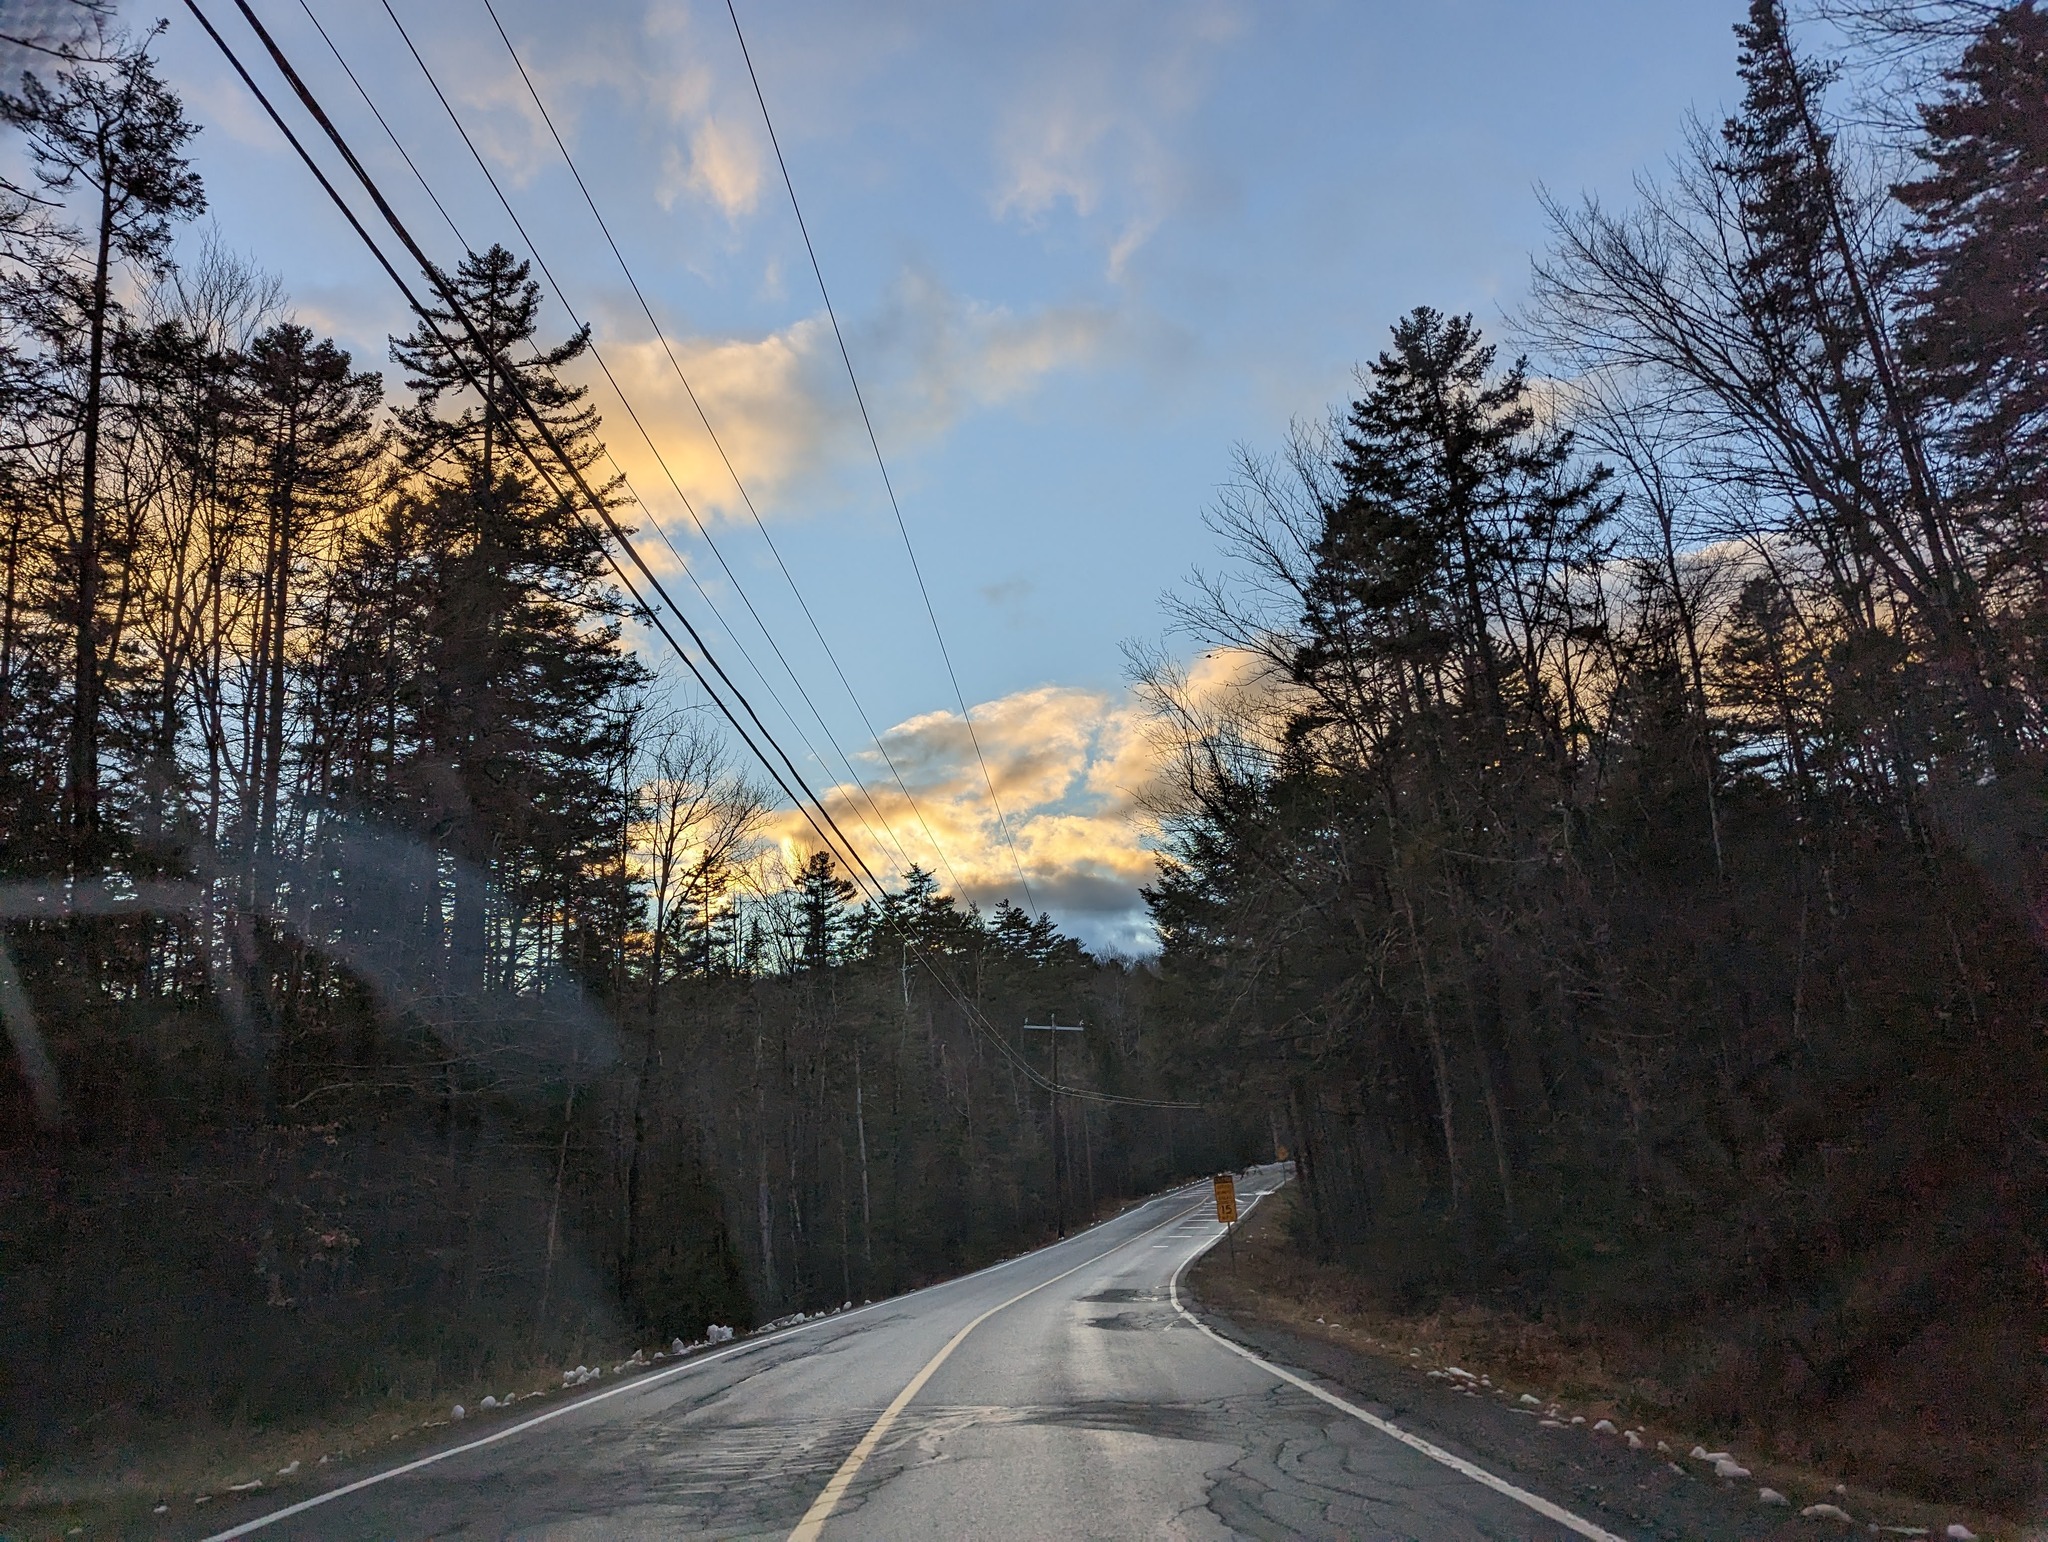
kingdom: Plantae
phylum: Tracheophyta
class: Pinopsida
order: Pinales
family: Pinaceae
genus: Pinus
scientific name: Pinus strobus
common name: Weymouth pine
